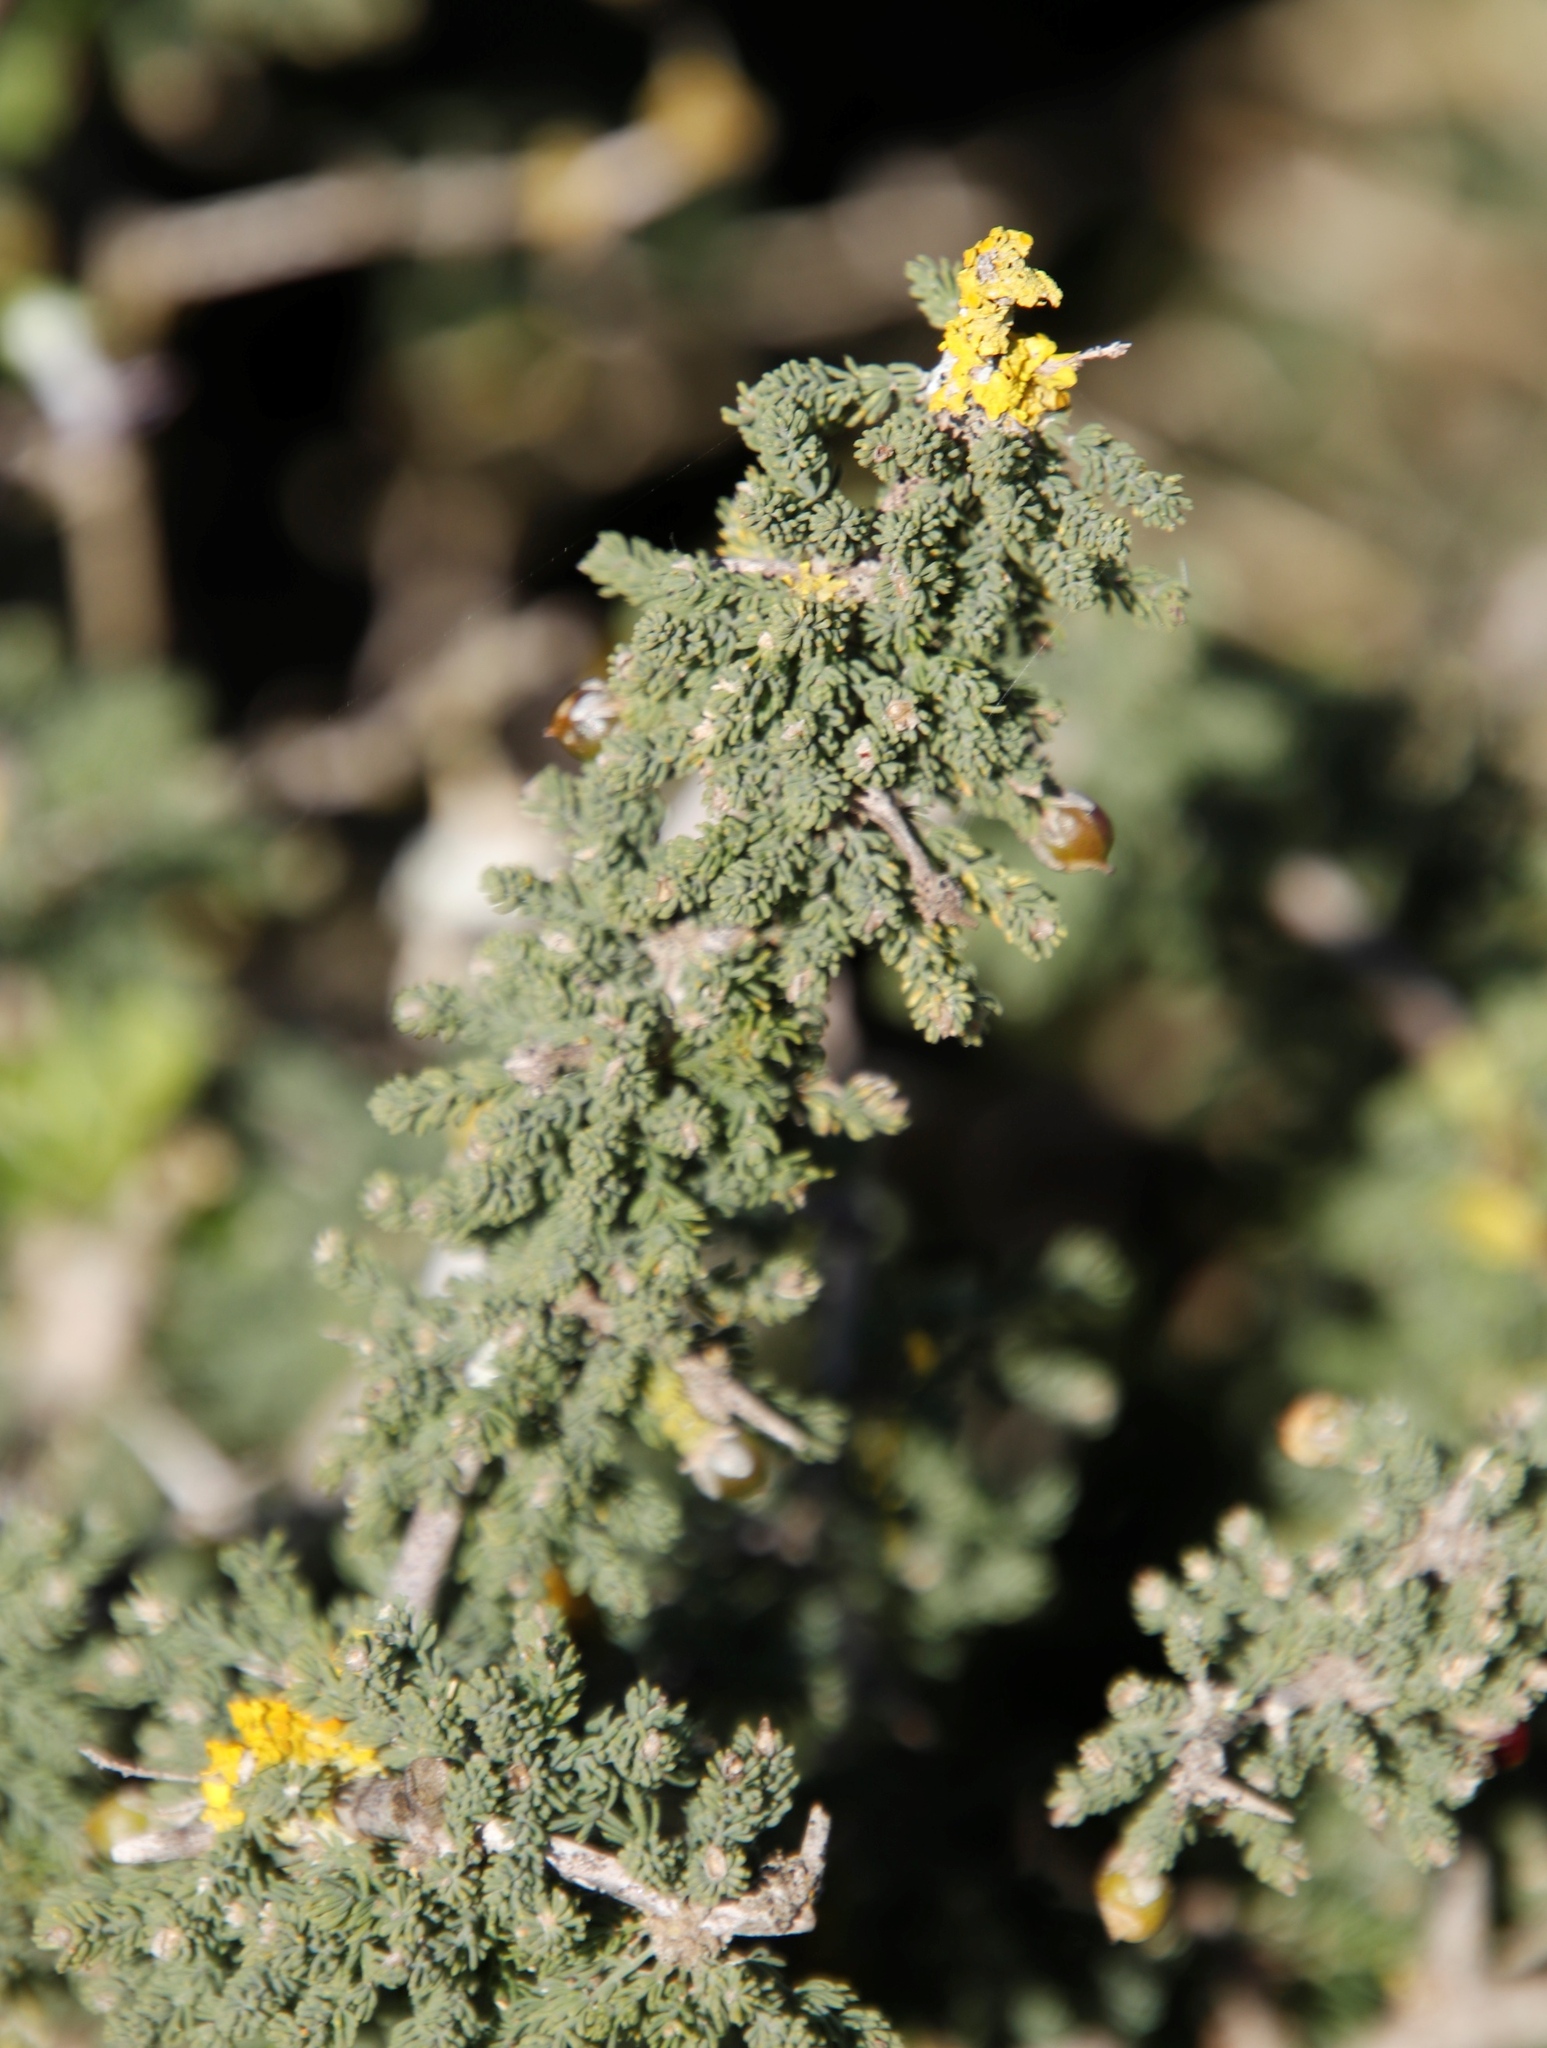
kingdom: Plantae
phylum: Tracheophyta
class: Liliopsida
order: Asparagales
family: Asparagaceae
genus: Asparagus
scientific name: Asparagus capensis
